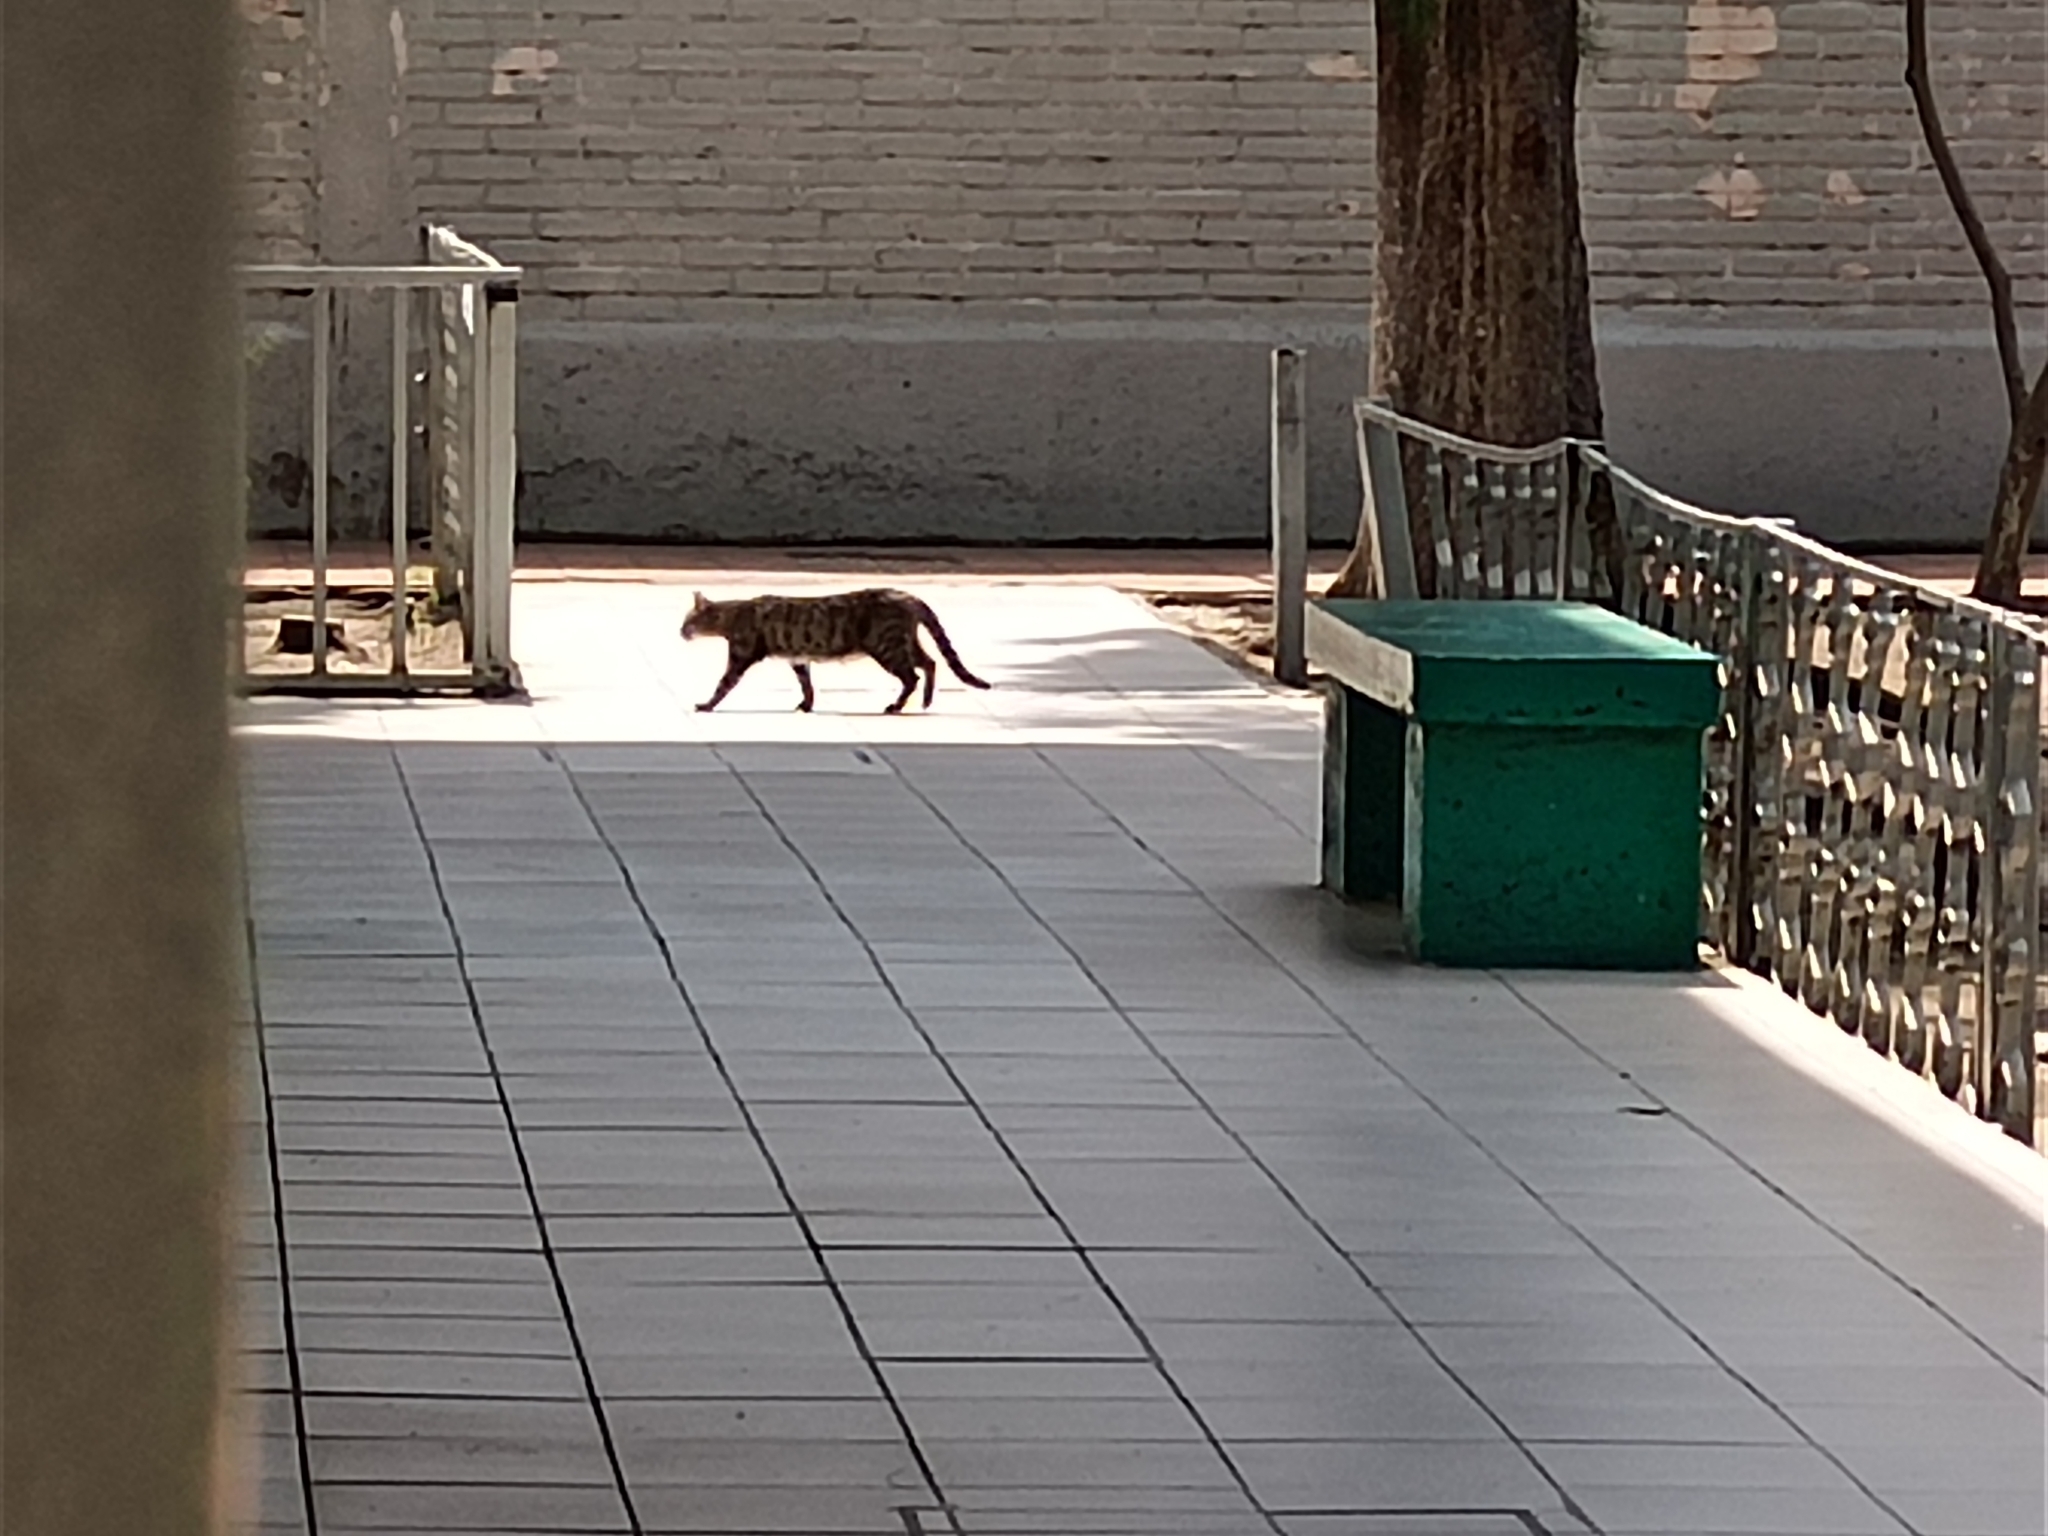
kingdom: Animalia
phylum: Chordata
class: Mammalia
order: Carnivora
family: Felidae
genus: Felis
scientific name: Felis catus
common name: Domestic cat
